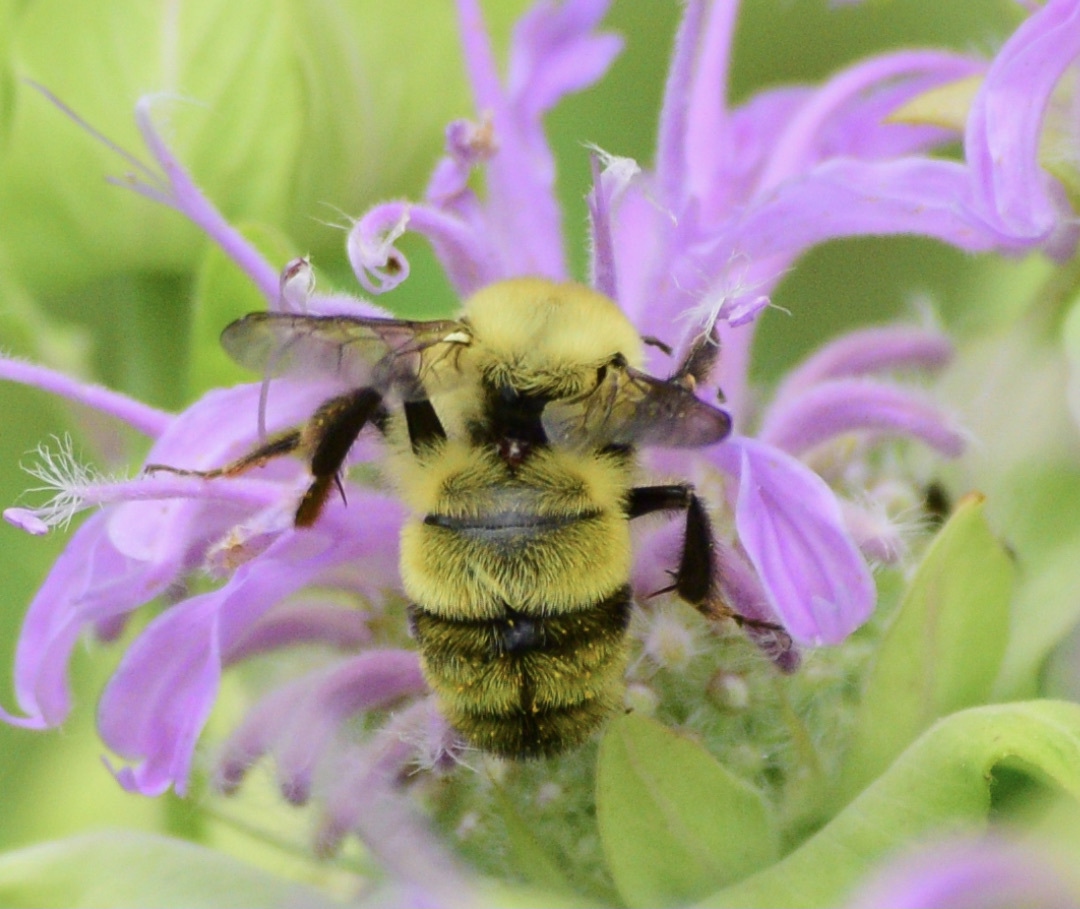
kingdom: Animalia
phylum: Arthropoda
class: Insecta
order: Hymenoptera
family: Apidae
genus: Bombus
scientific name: Bombus bimaculatus
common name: Two-spotted bumble bee
